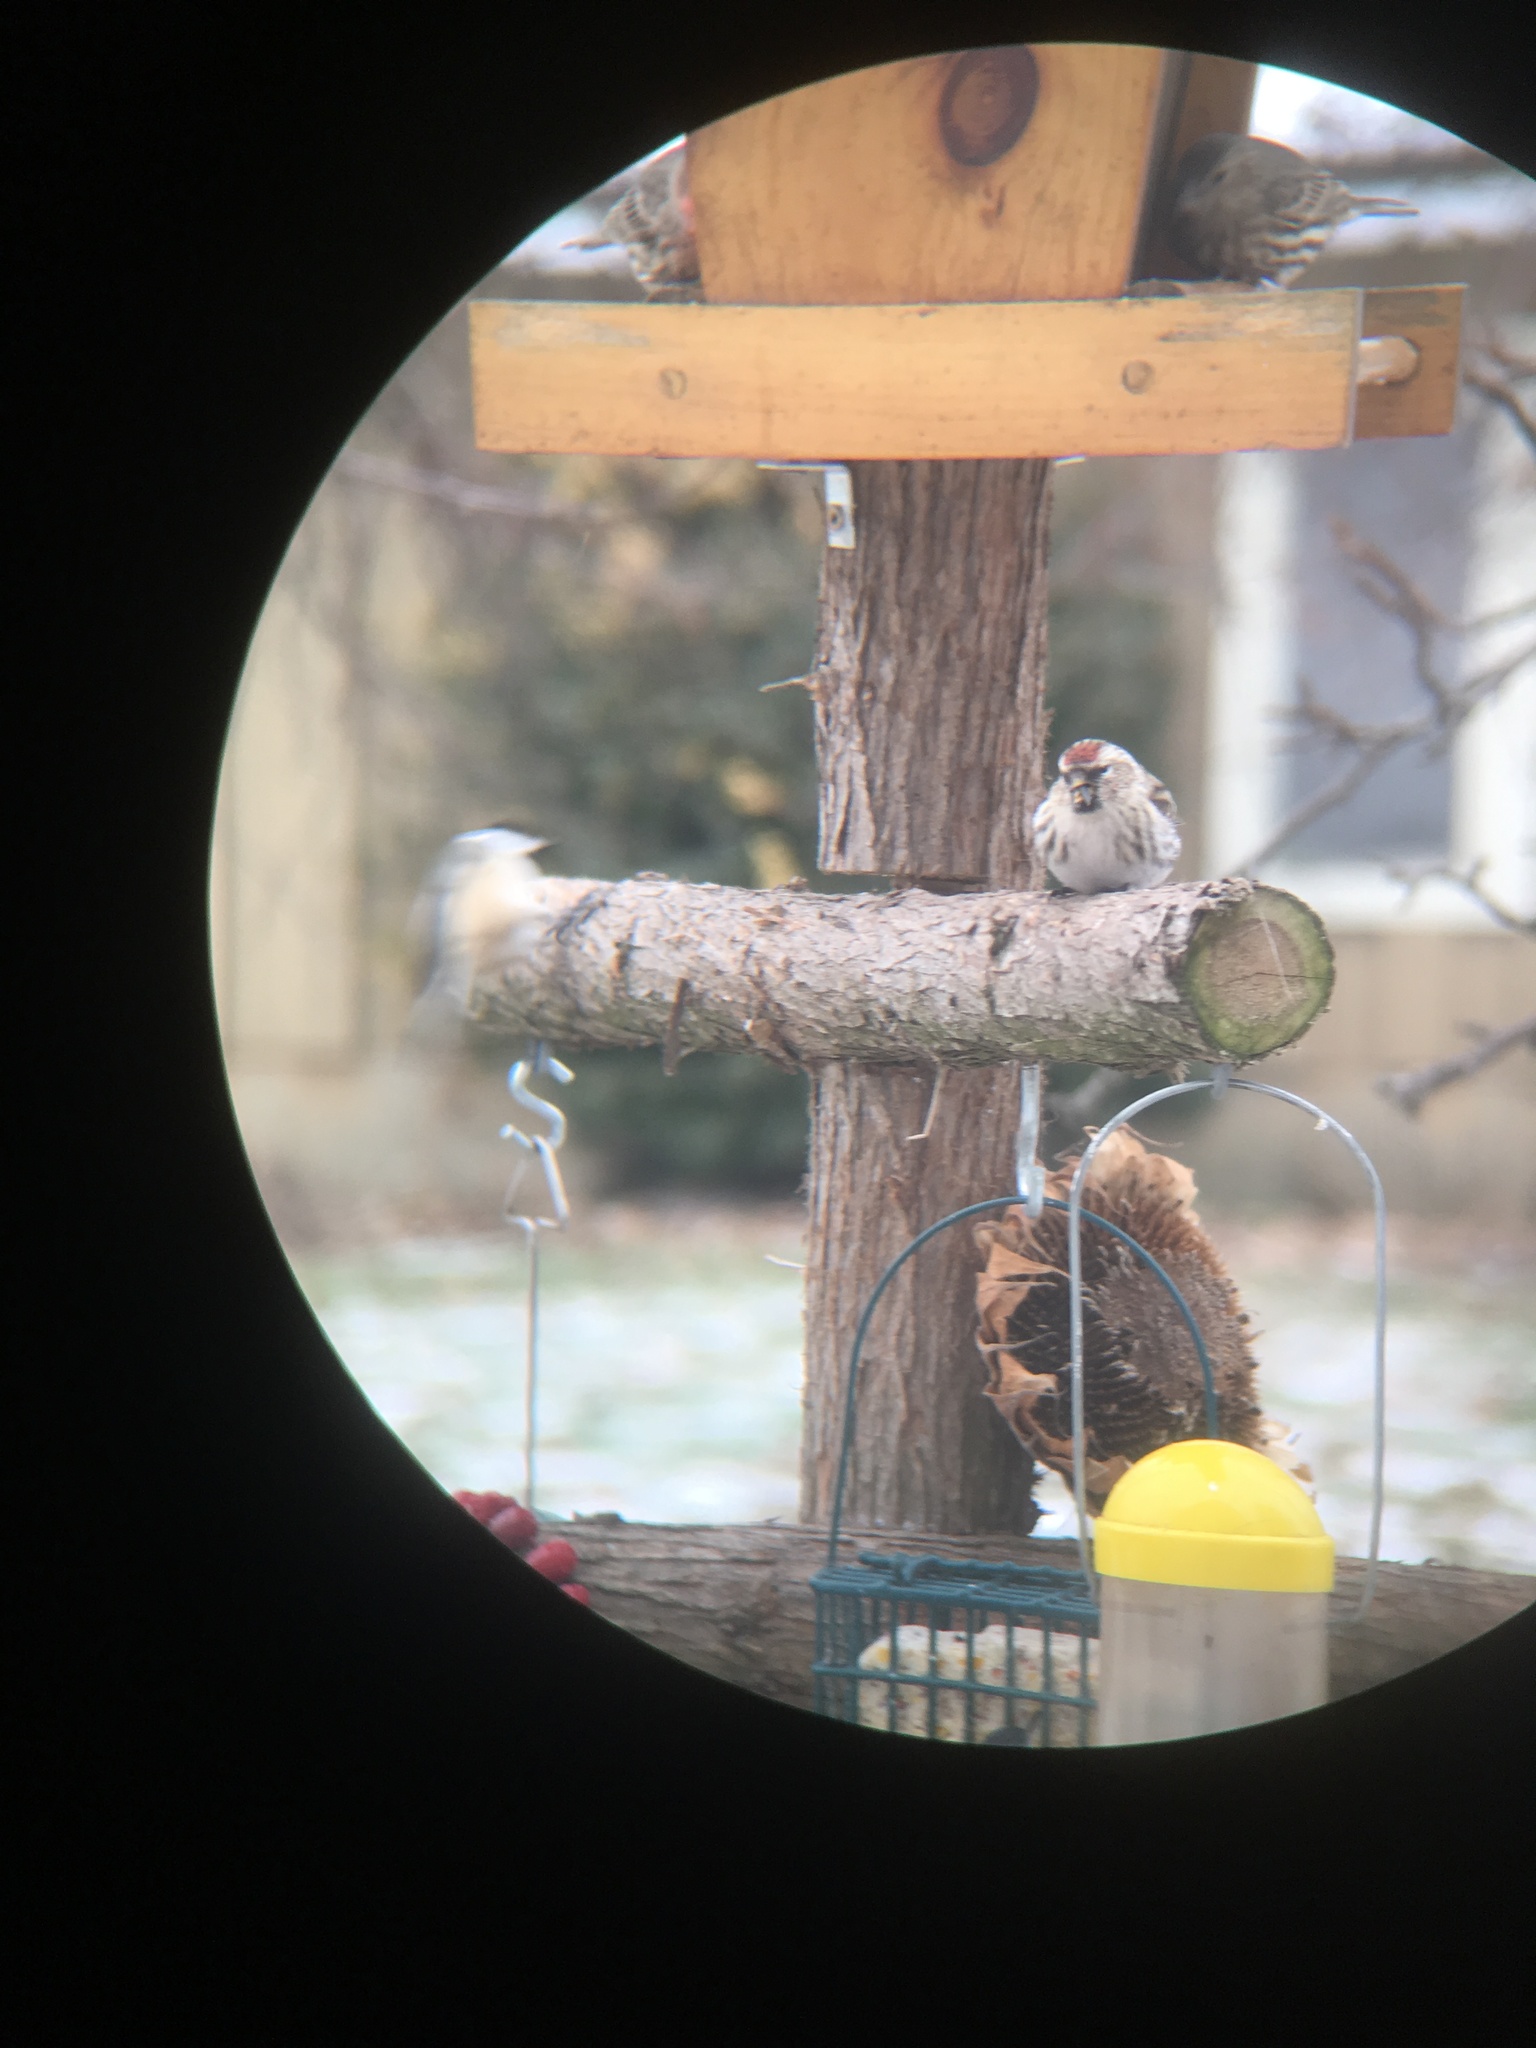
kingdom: Animalia
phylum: Chordata
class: Aves
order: Passeriformes
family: Fringillidae
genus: Acanthis
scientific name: Acanthis flammea
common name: Common redpoll
